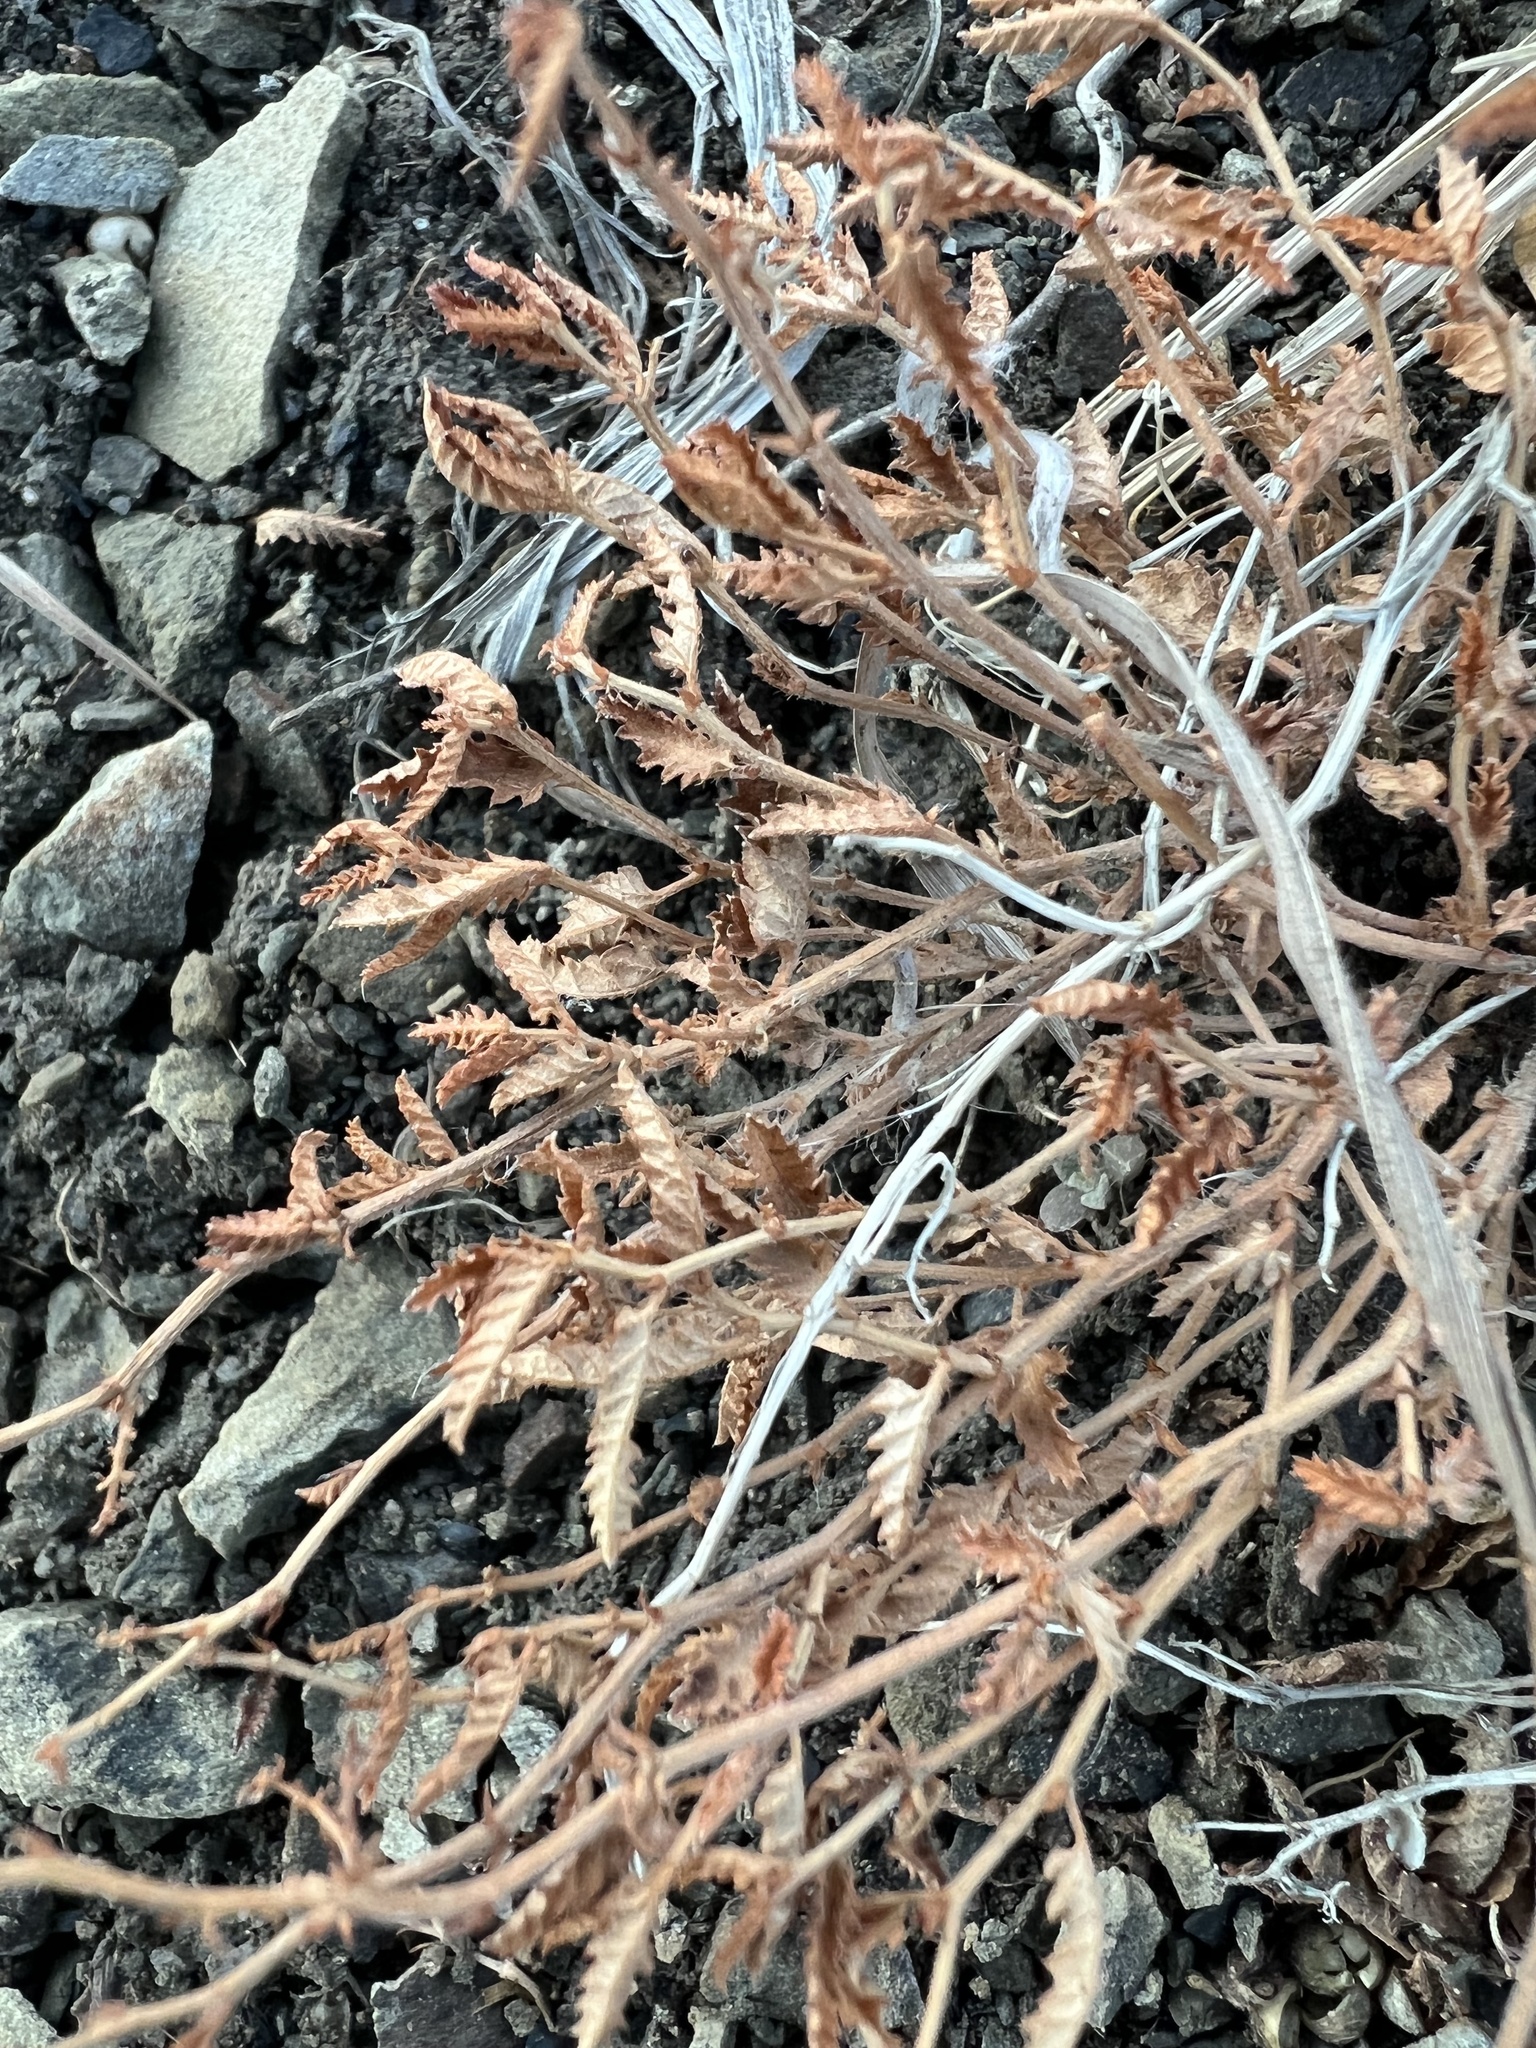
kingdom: Plantae
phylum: Tracheophyta
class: Magnoliopsida
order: Malpighiales
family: Euphorbiaceae
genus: Tragia
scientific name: Tragia ramosa
